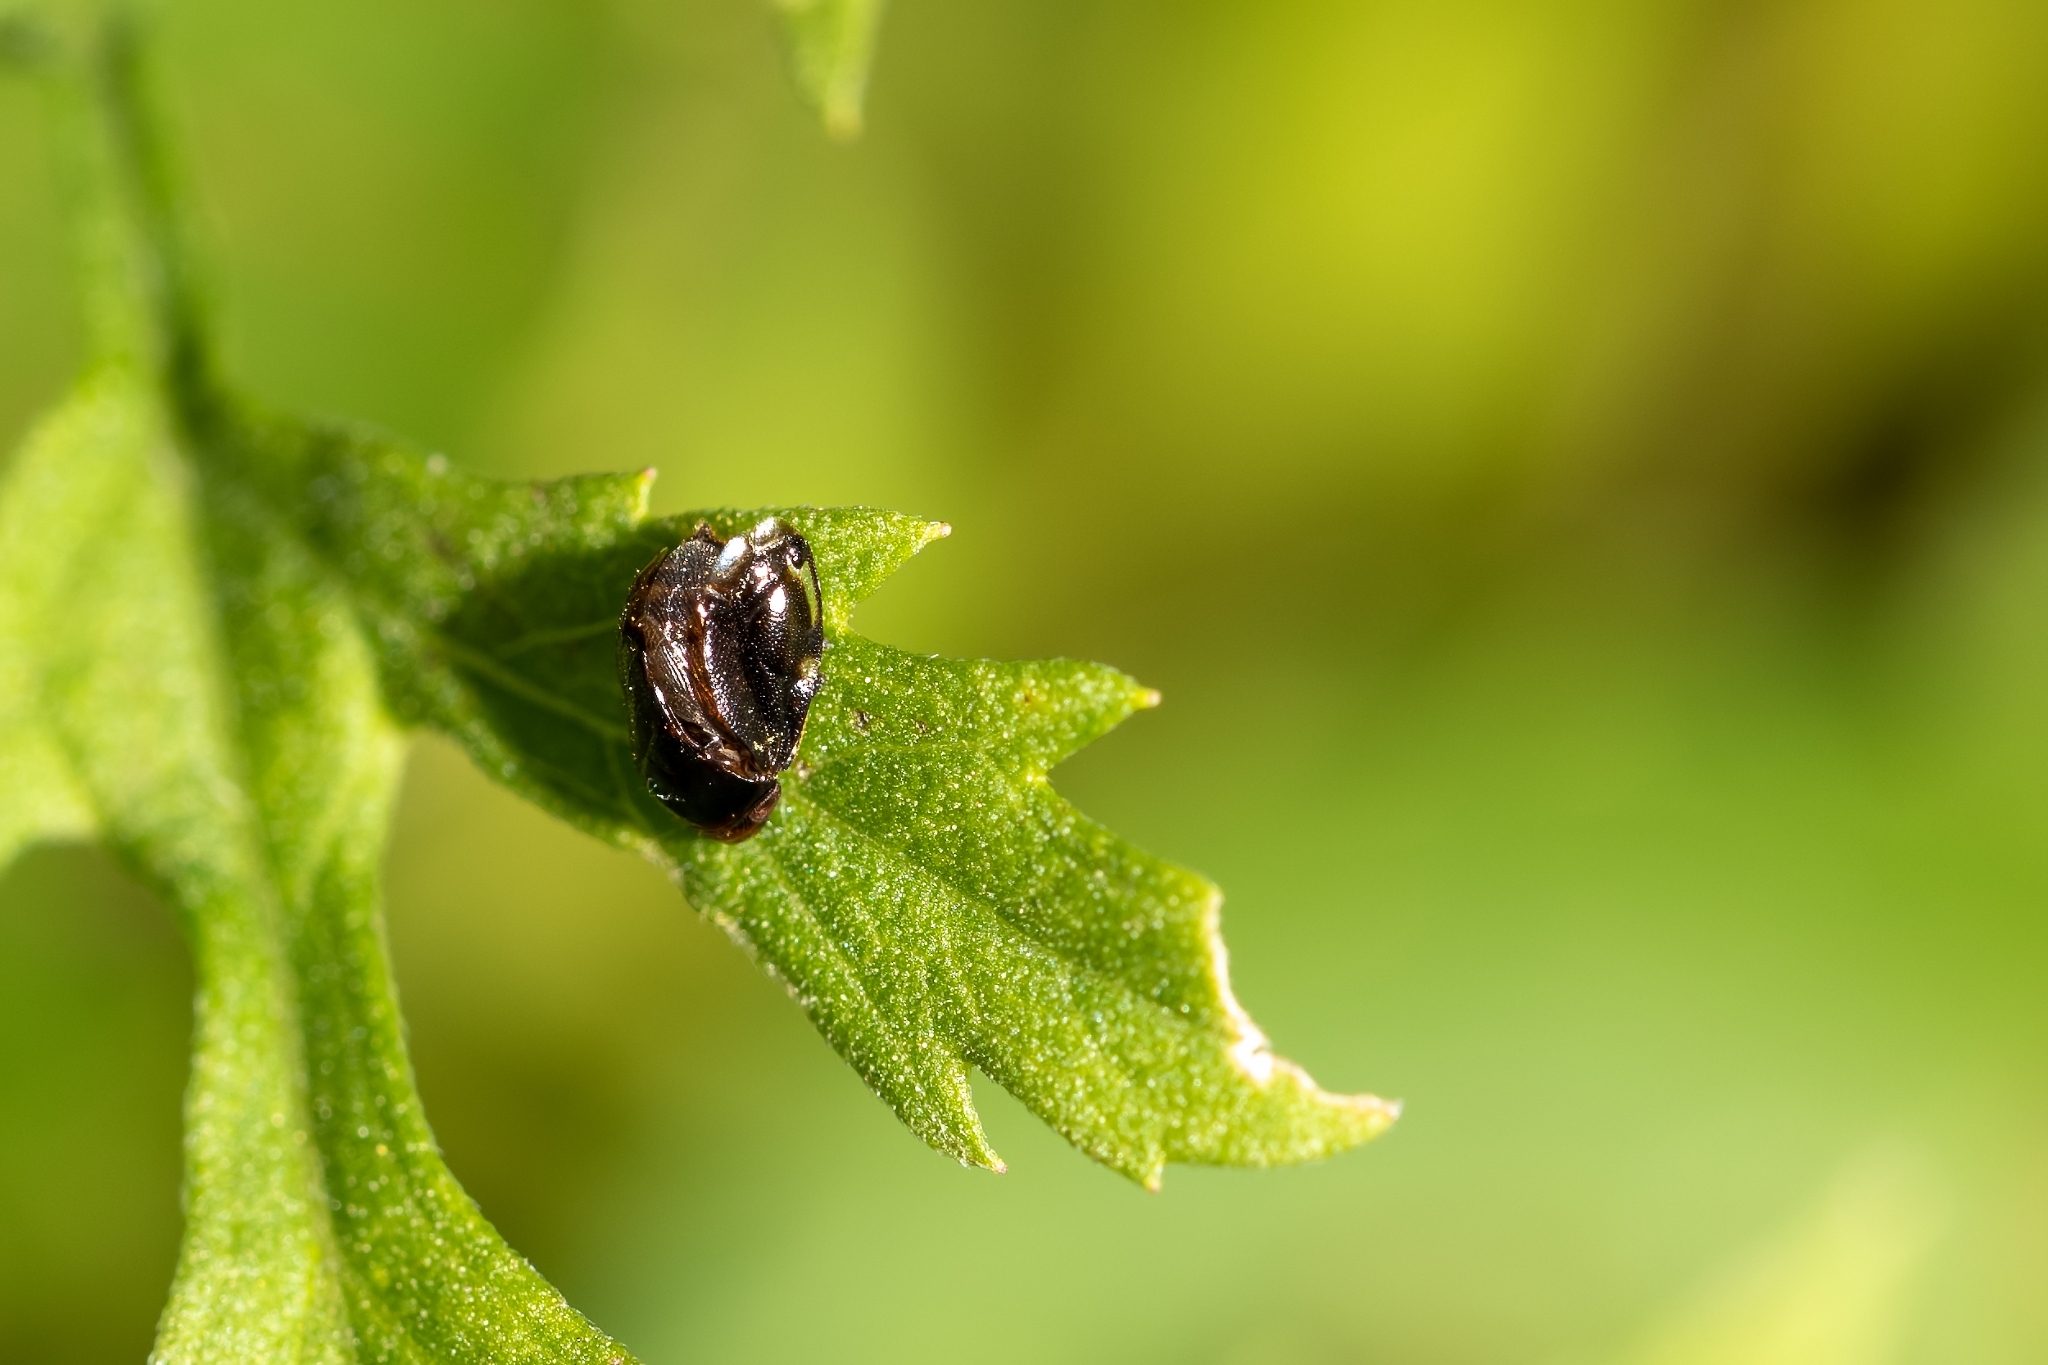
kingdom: Animalia
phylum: Arthropoda
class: Insecta
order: Hemiptera
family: Clastopteridae
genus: Clastoptera
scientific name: Clastoptera xanthocephala
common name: Sunflower spittlebug
